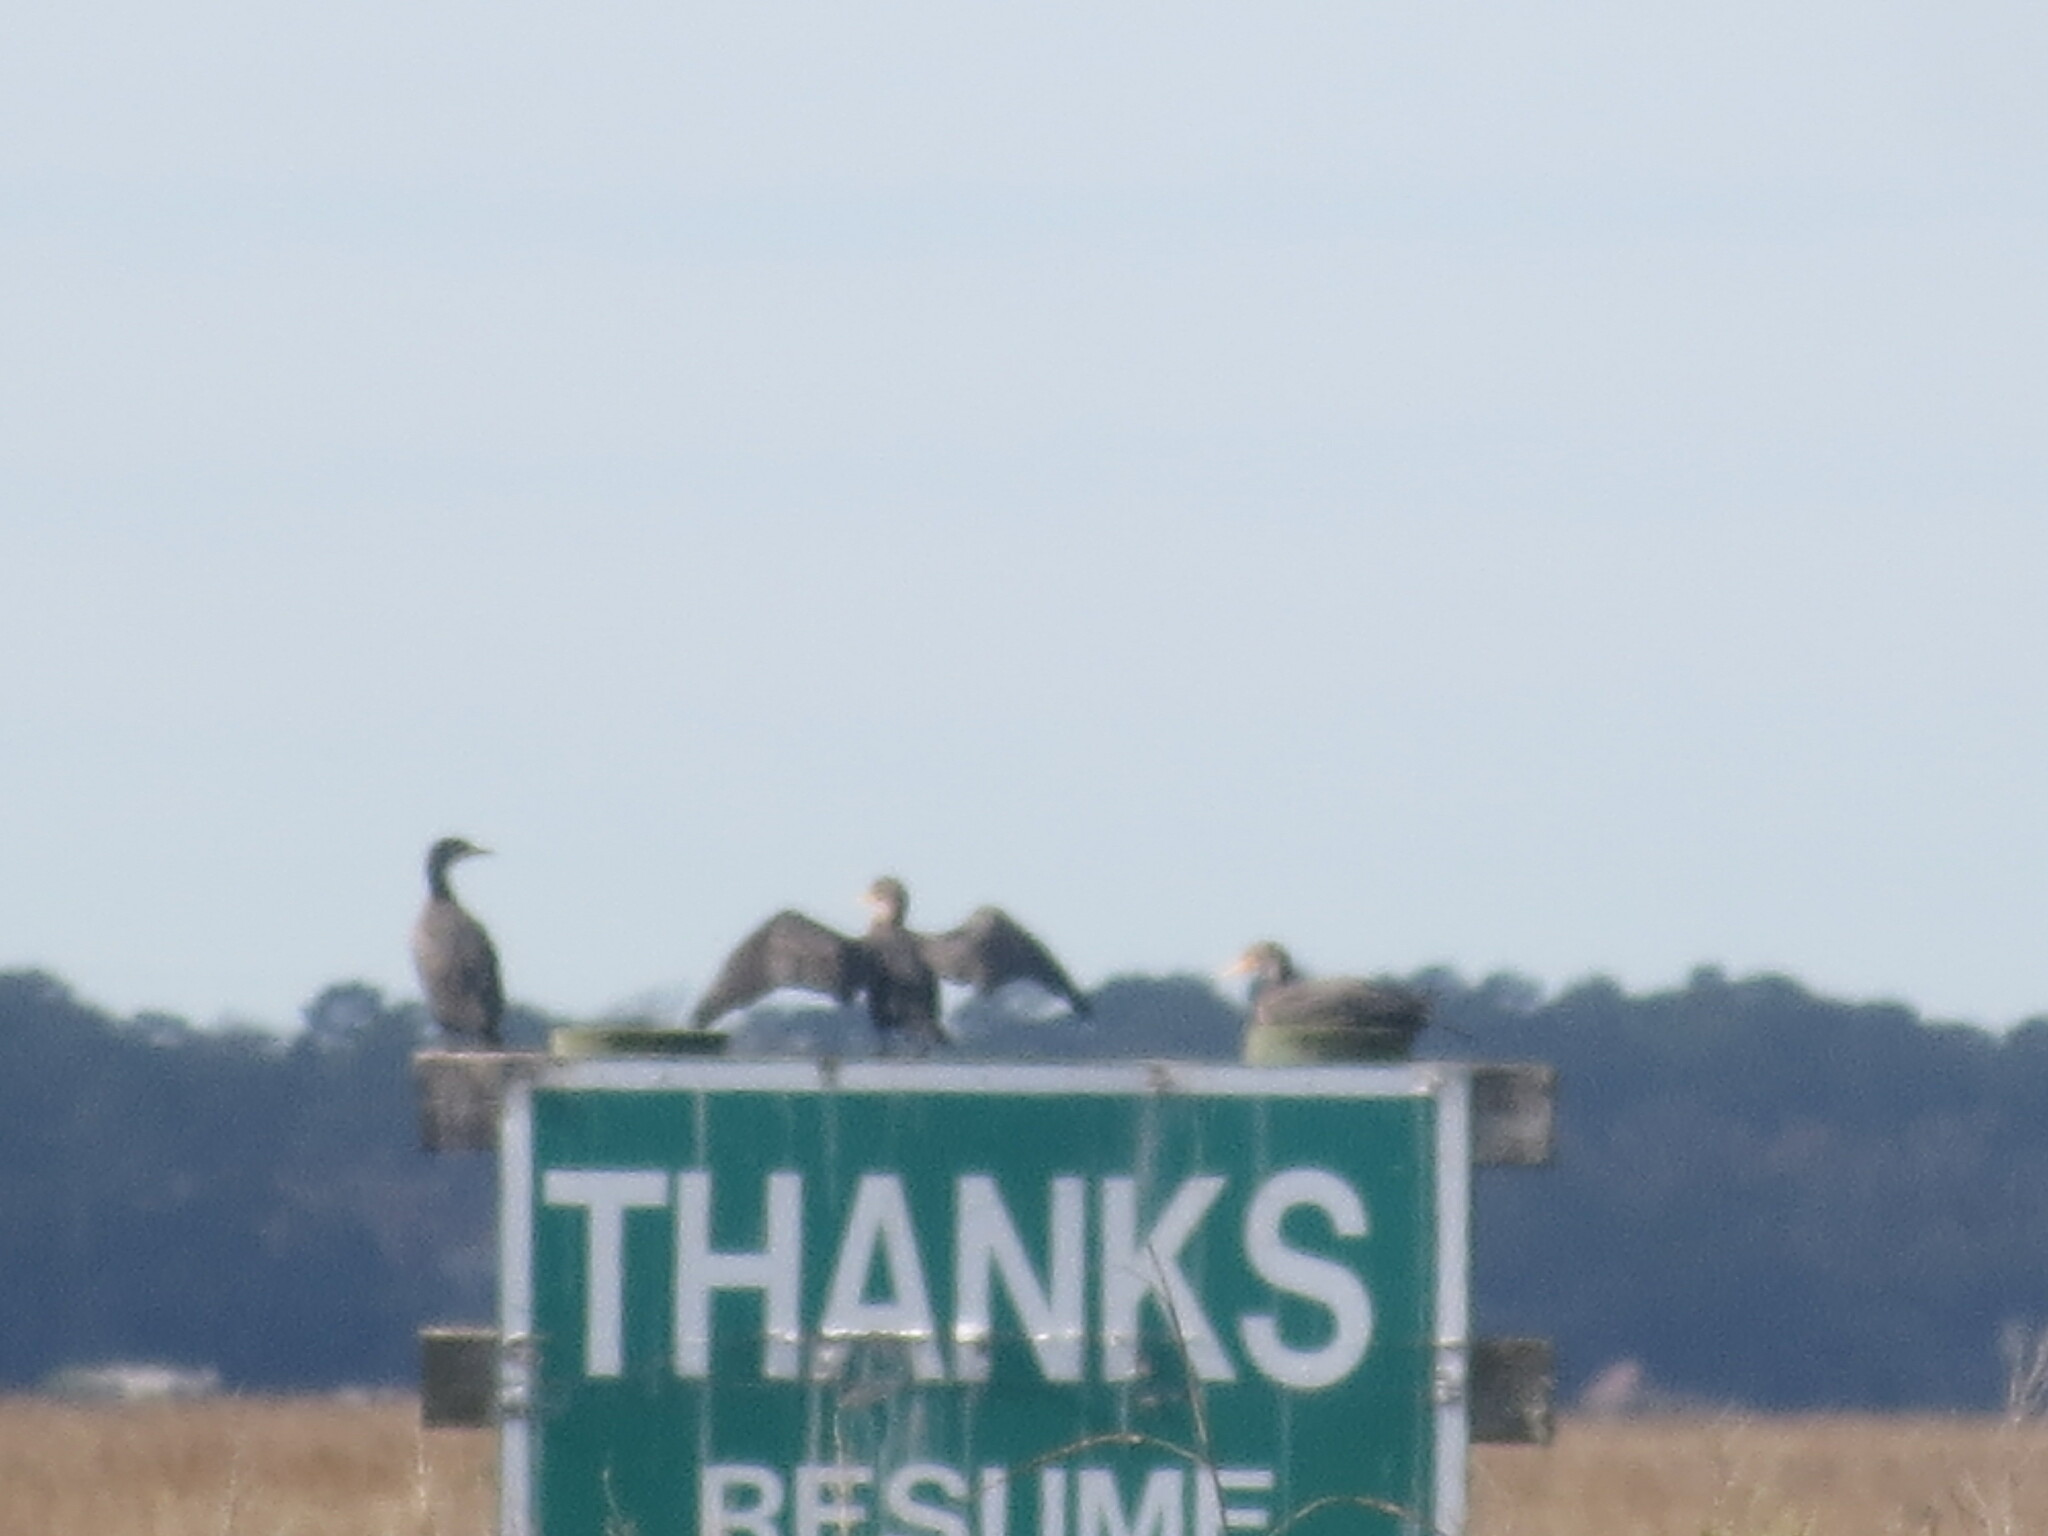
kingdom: Animalia
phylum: Chordata
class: Aves
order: Suliformes
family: Phalacrocoracidae
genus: Phalacrocorax
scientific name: Phalacrocorax auritus
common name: Double-crested cormorant
